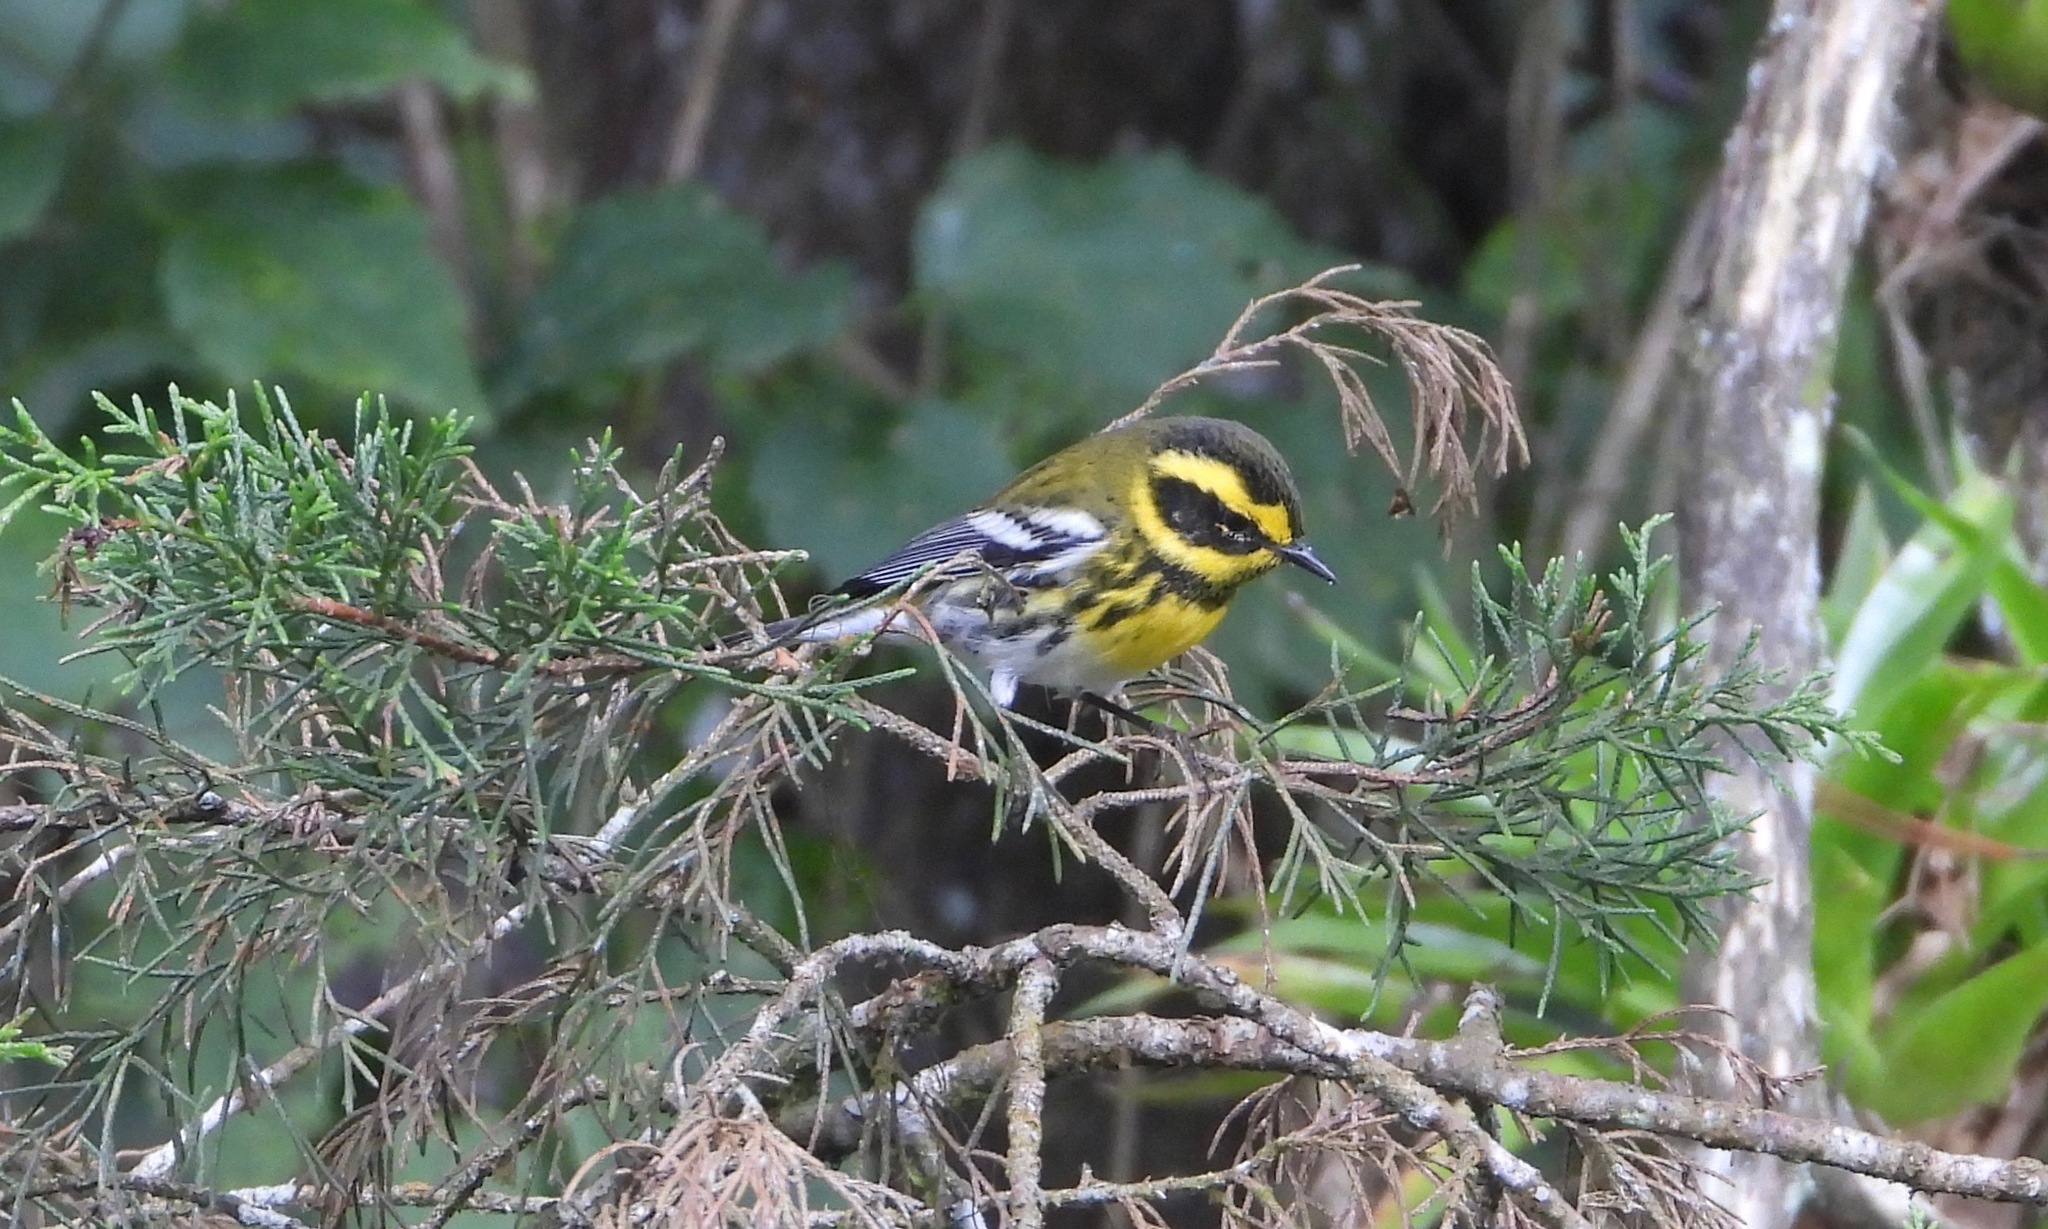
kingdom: Animalia
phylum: Chordata
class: Aves
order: Passeriformes
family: Parulidae
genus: Setophaga
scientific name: Setophaga townsendi
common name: Townsend's warbler
